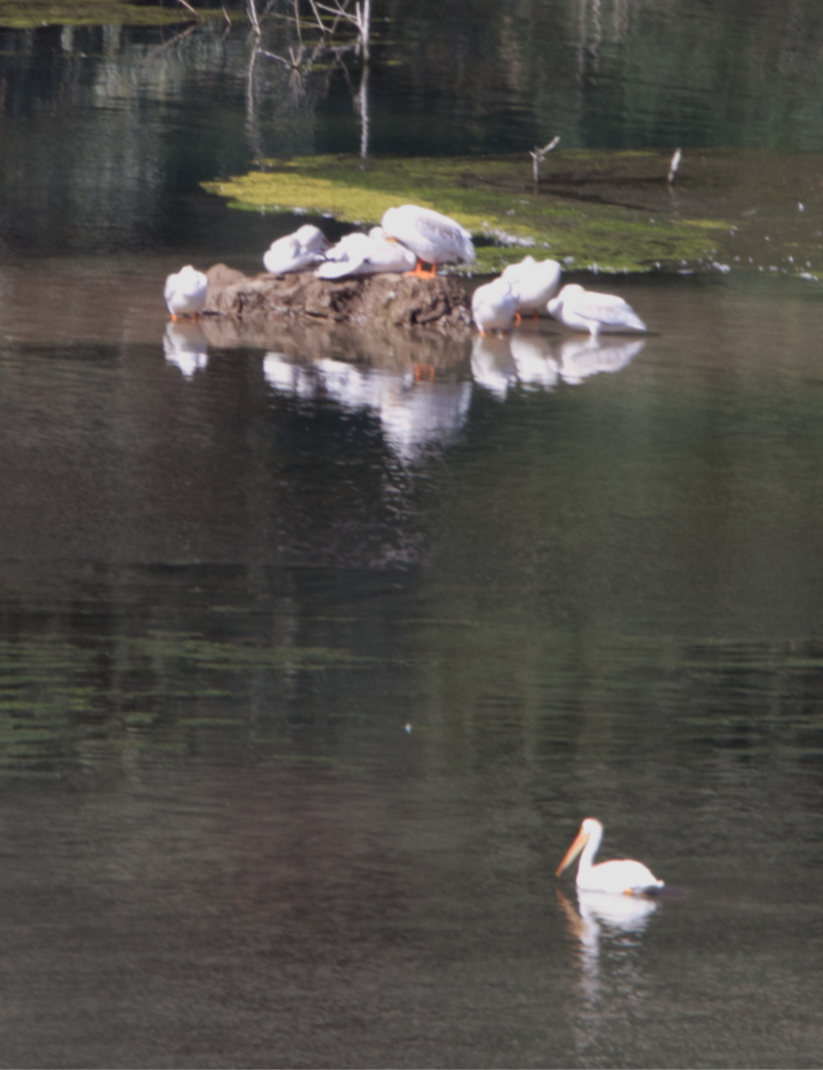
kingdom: Animalia
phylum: Chordata
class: Aves
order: Pelecaniformes
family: Pelecanidae
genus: Pelecanus
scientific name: Pelecanus erythrorhynchos
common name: American white pelican
